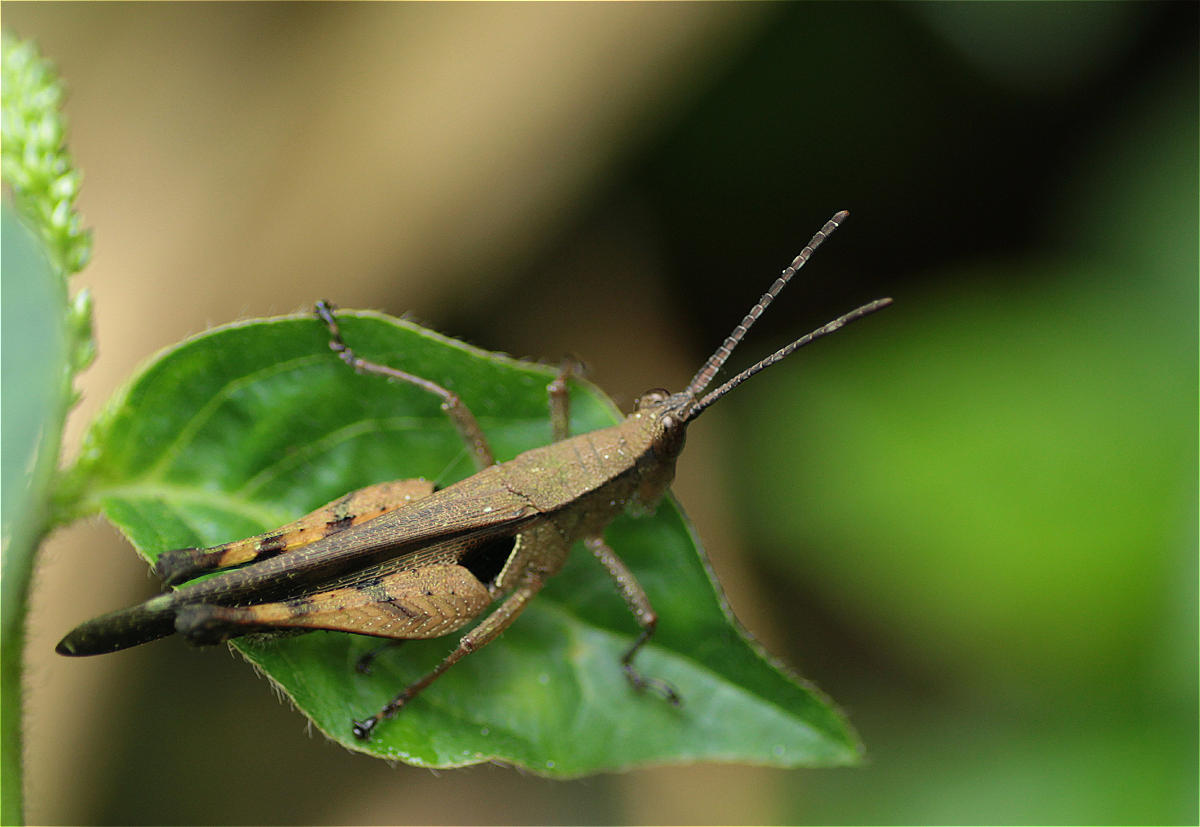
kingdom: Animalia
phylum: Arthropoda
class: Insecta
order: Orthoptera
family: Acrididae
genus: Xiphiola
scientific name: Xiphiola cyanoptera
